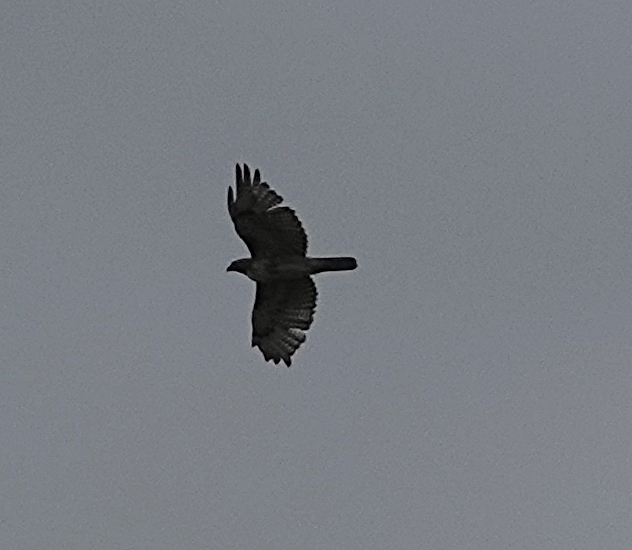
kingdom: Animalia
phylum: Chordata
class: Aves
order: Accipitriformes
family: Accipitridae
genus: Buteo
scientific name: Buteo jamaicensis
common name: Red-tailed hawk
